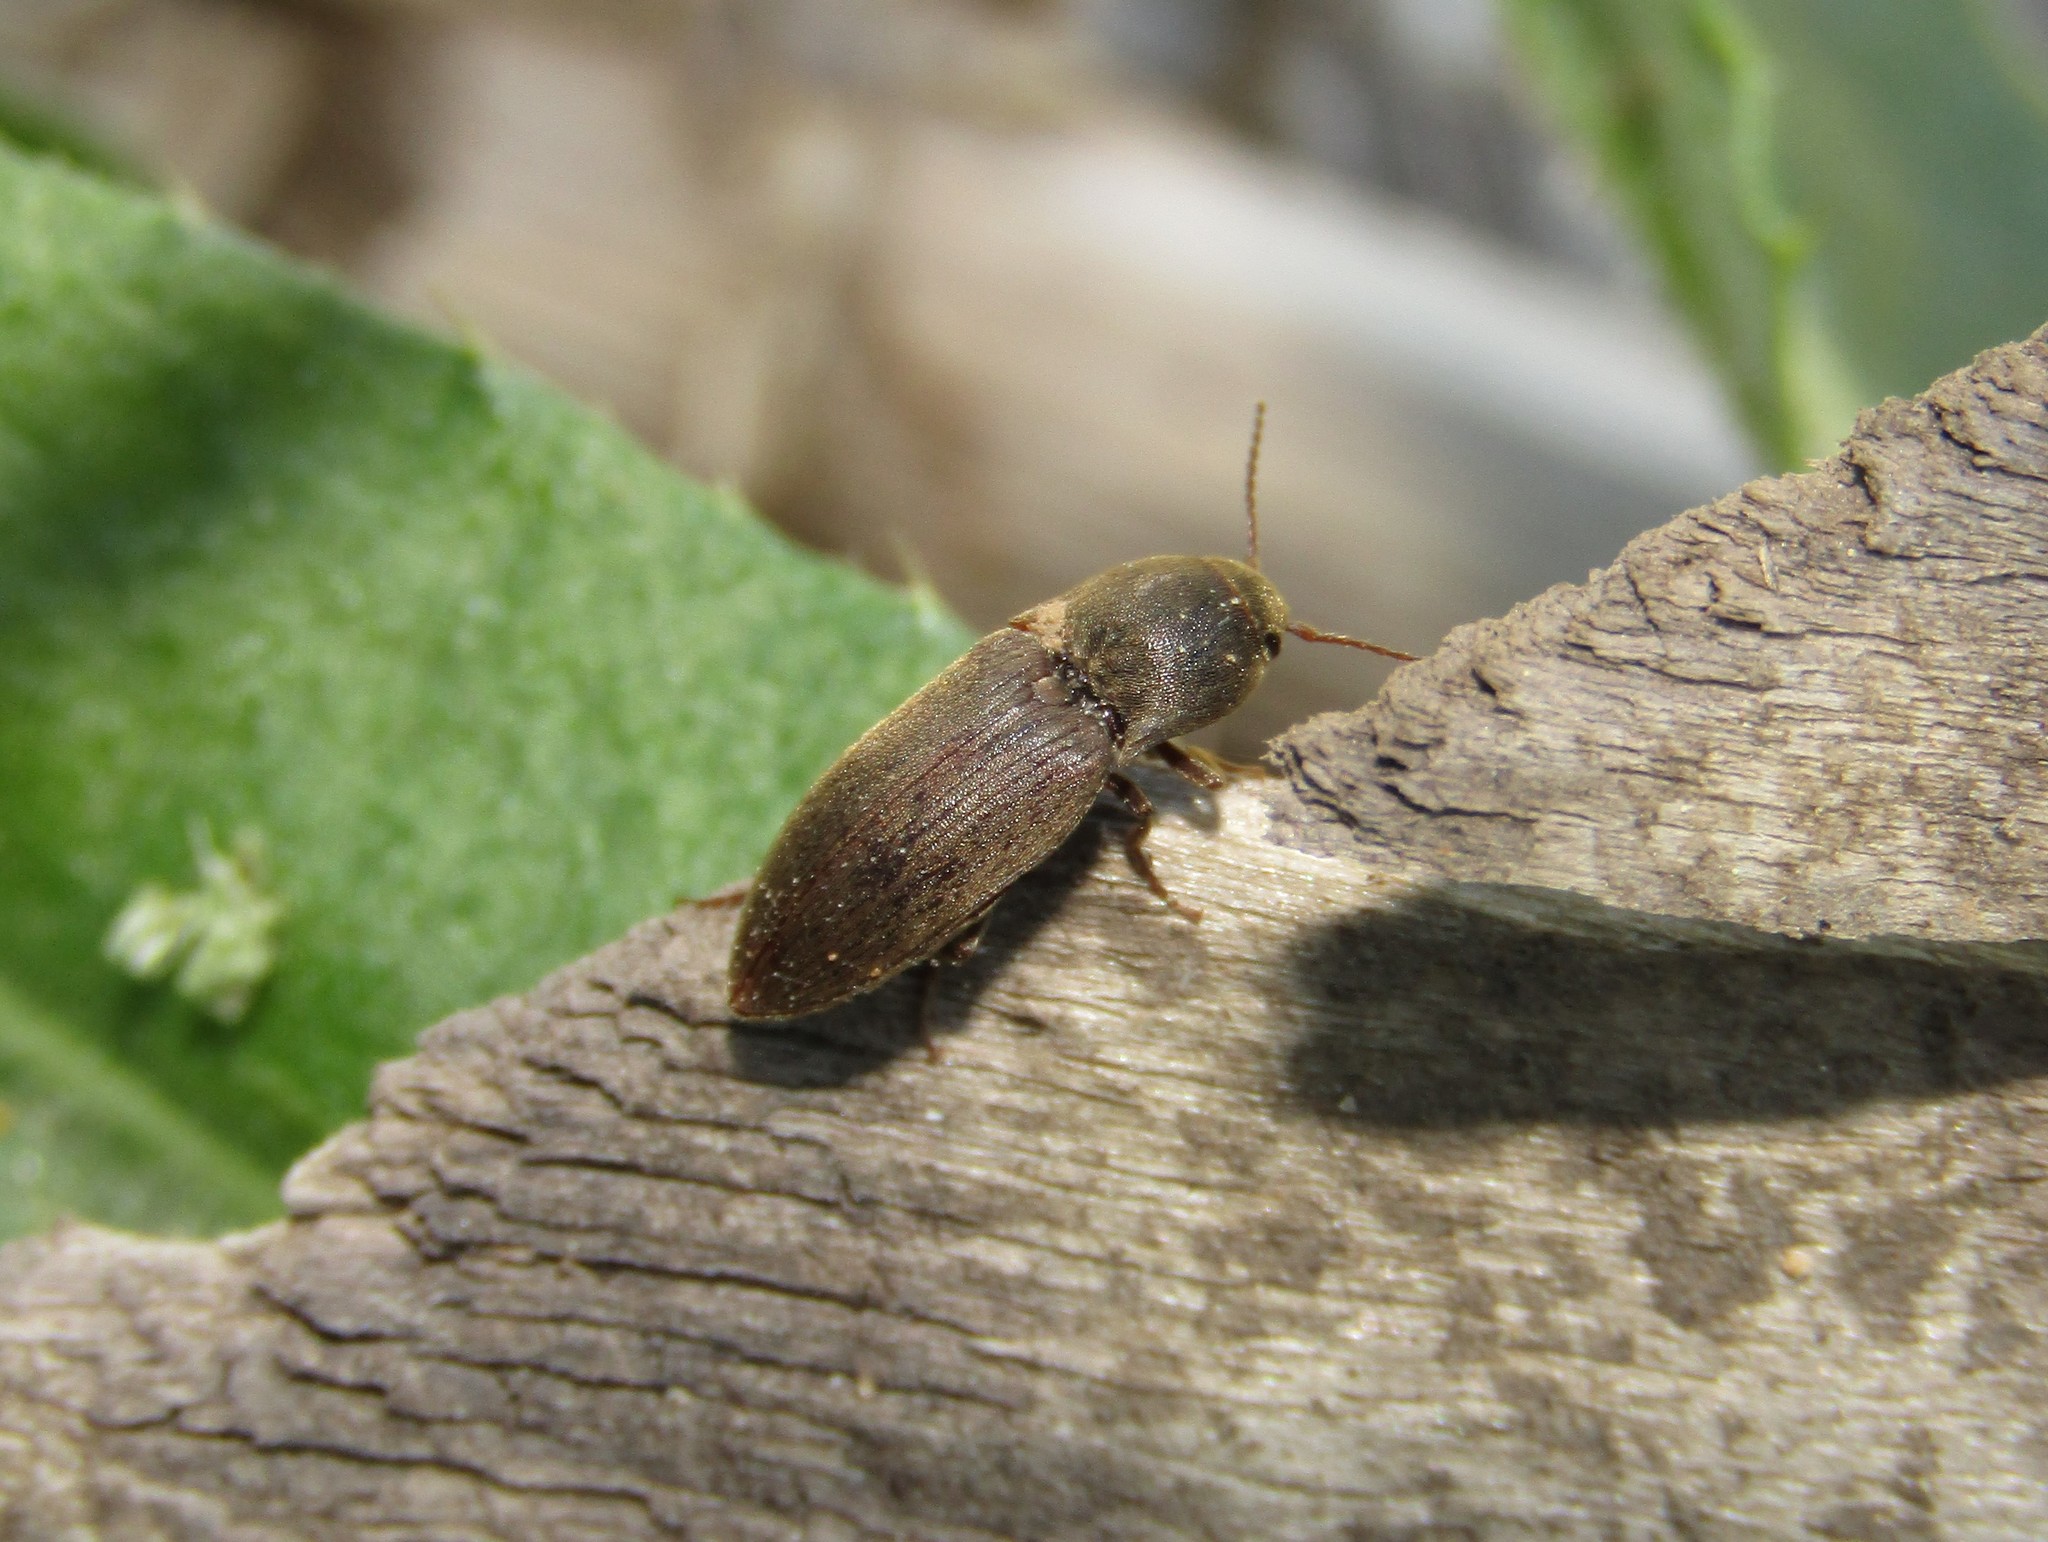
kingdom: Animalia
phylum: Arthropoda
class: Insecta
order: Coleoptera
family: Elateridae
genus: Agriotes
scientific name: Agriotes obscurus
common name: Dusky wireworm
